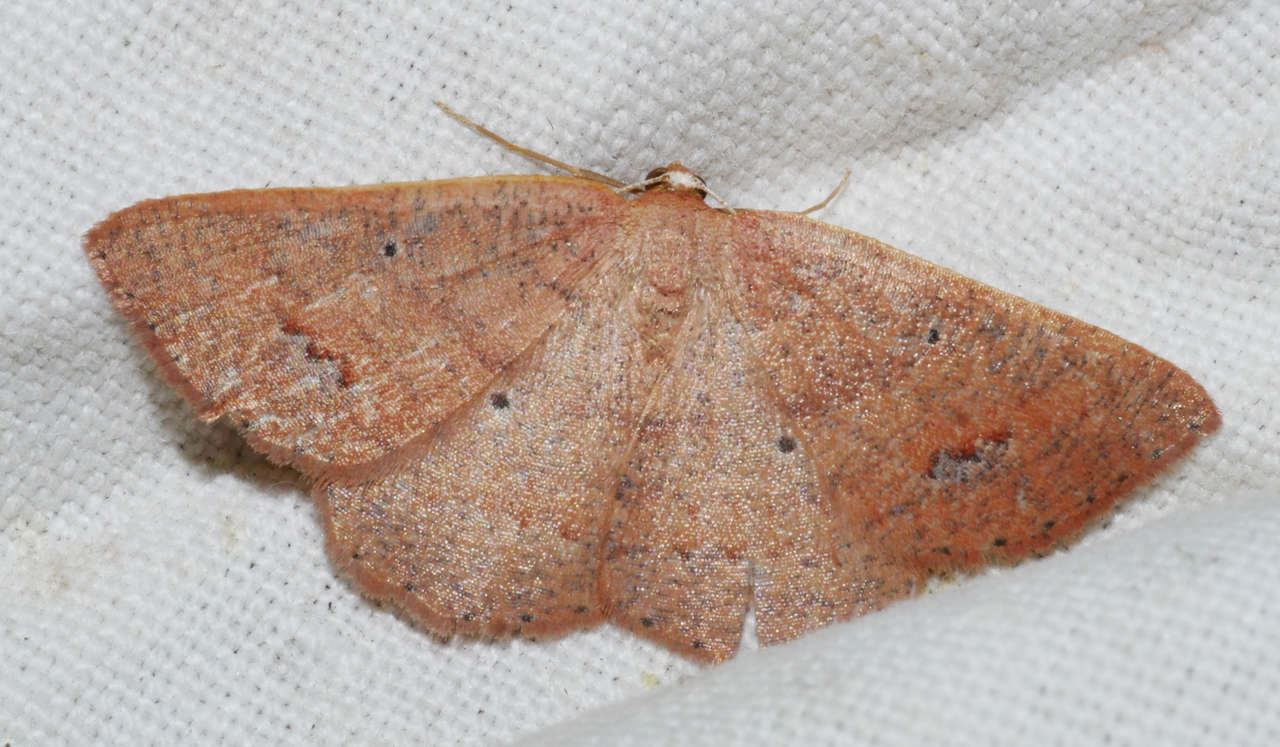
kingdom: Animalia
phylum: Arthropoda
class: Insecta
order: Lepidoptera
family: Geometridae
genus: Casbia
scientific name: Casbia oenias
